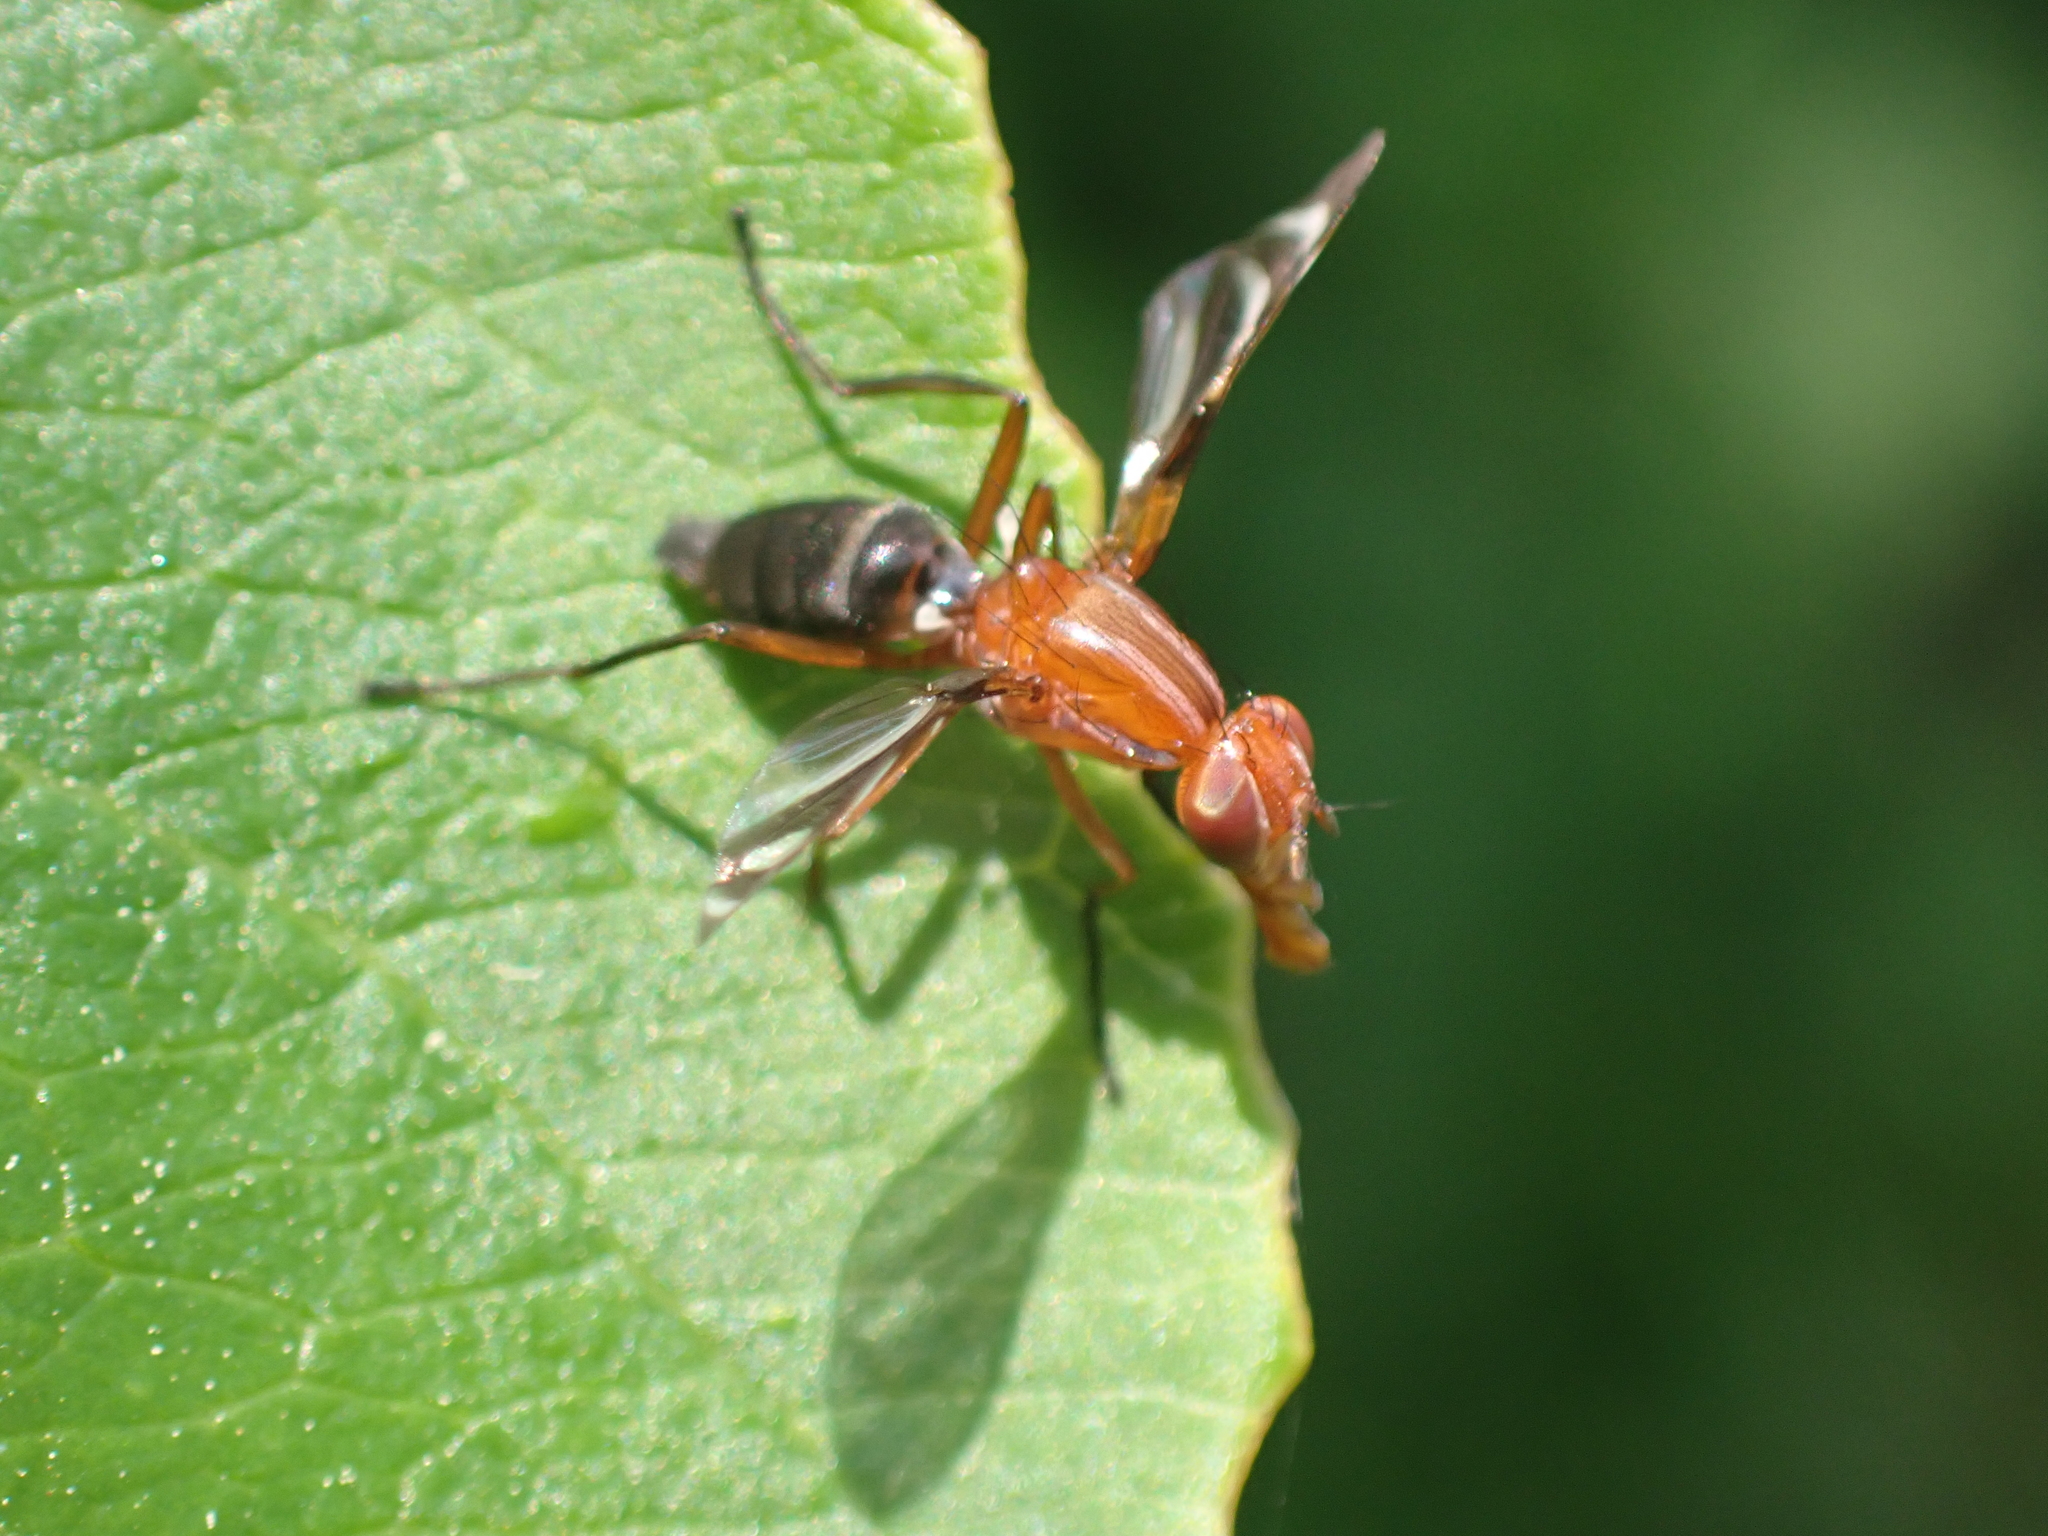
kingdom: Animalia
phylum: Arthropoda
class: Insecta
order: Diptera
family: Ulidiidae
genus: Tritoxa
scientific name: Tritoxa incurva
